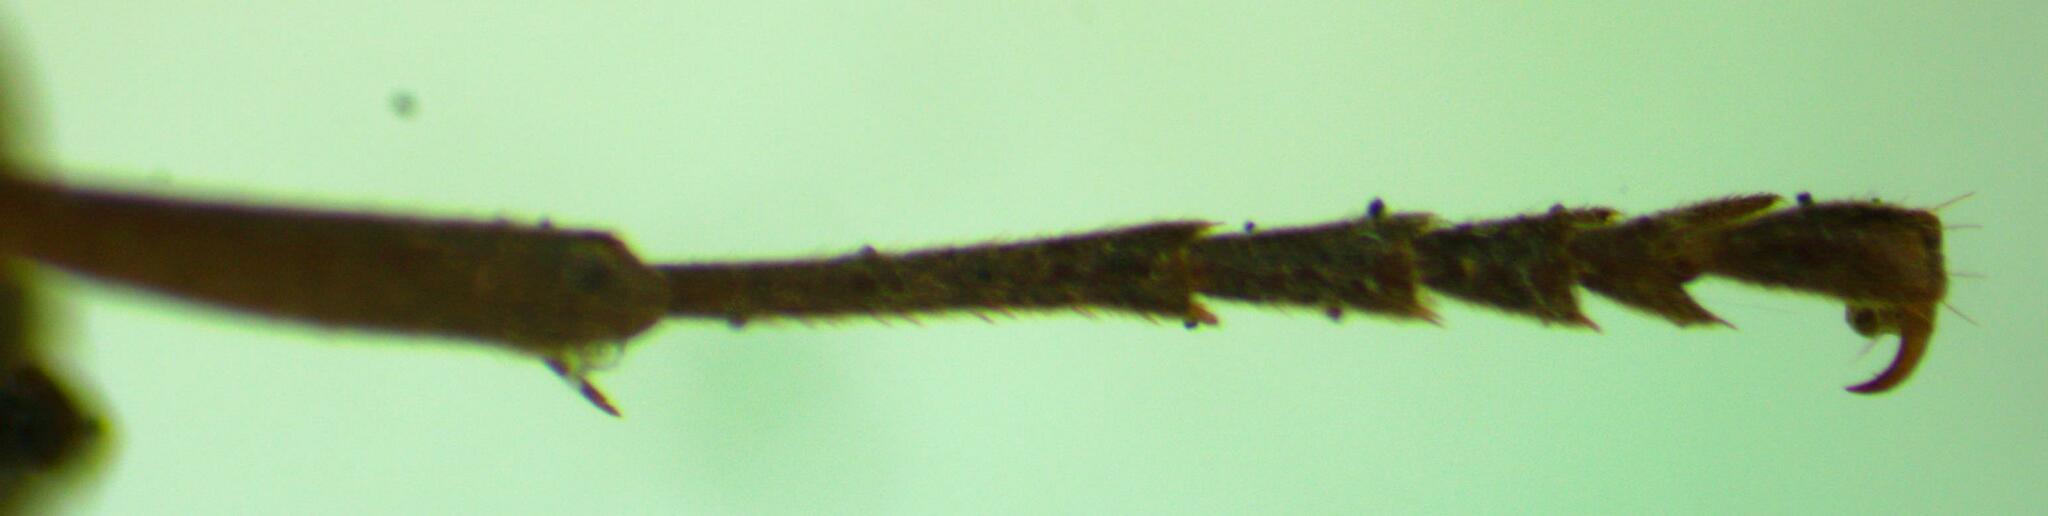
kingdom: Animalia
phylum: Arthropoda
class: Insecta
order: Hymenoptera
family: Vespidae
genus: Mischocyttarus
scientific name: Mischocyttarus melanarius
